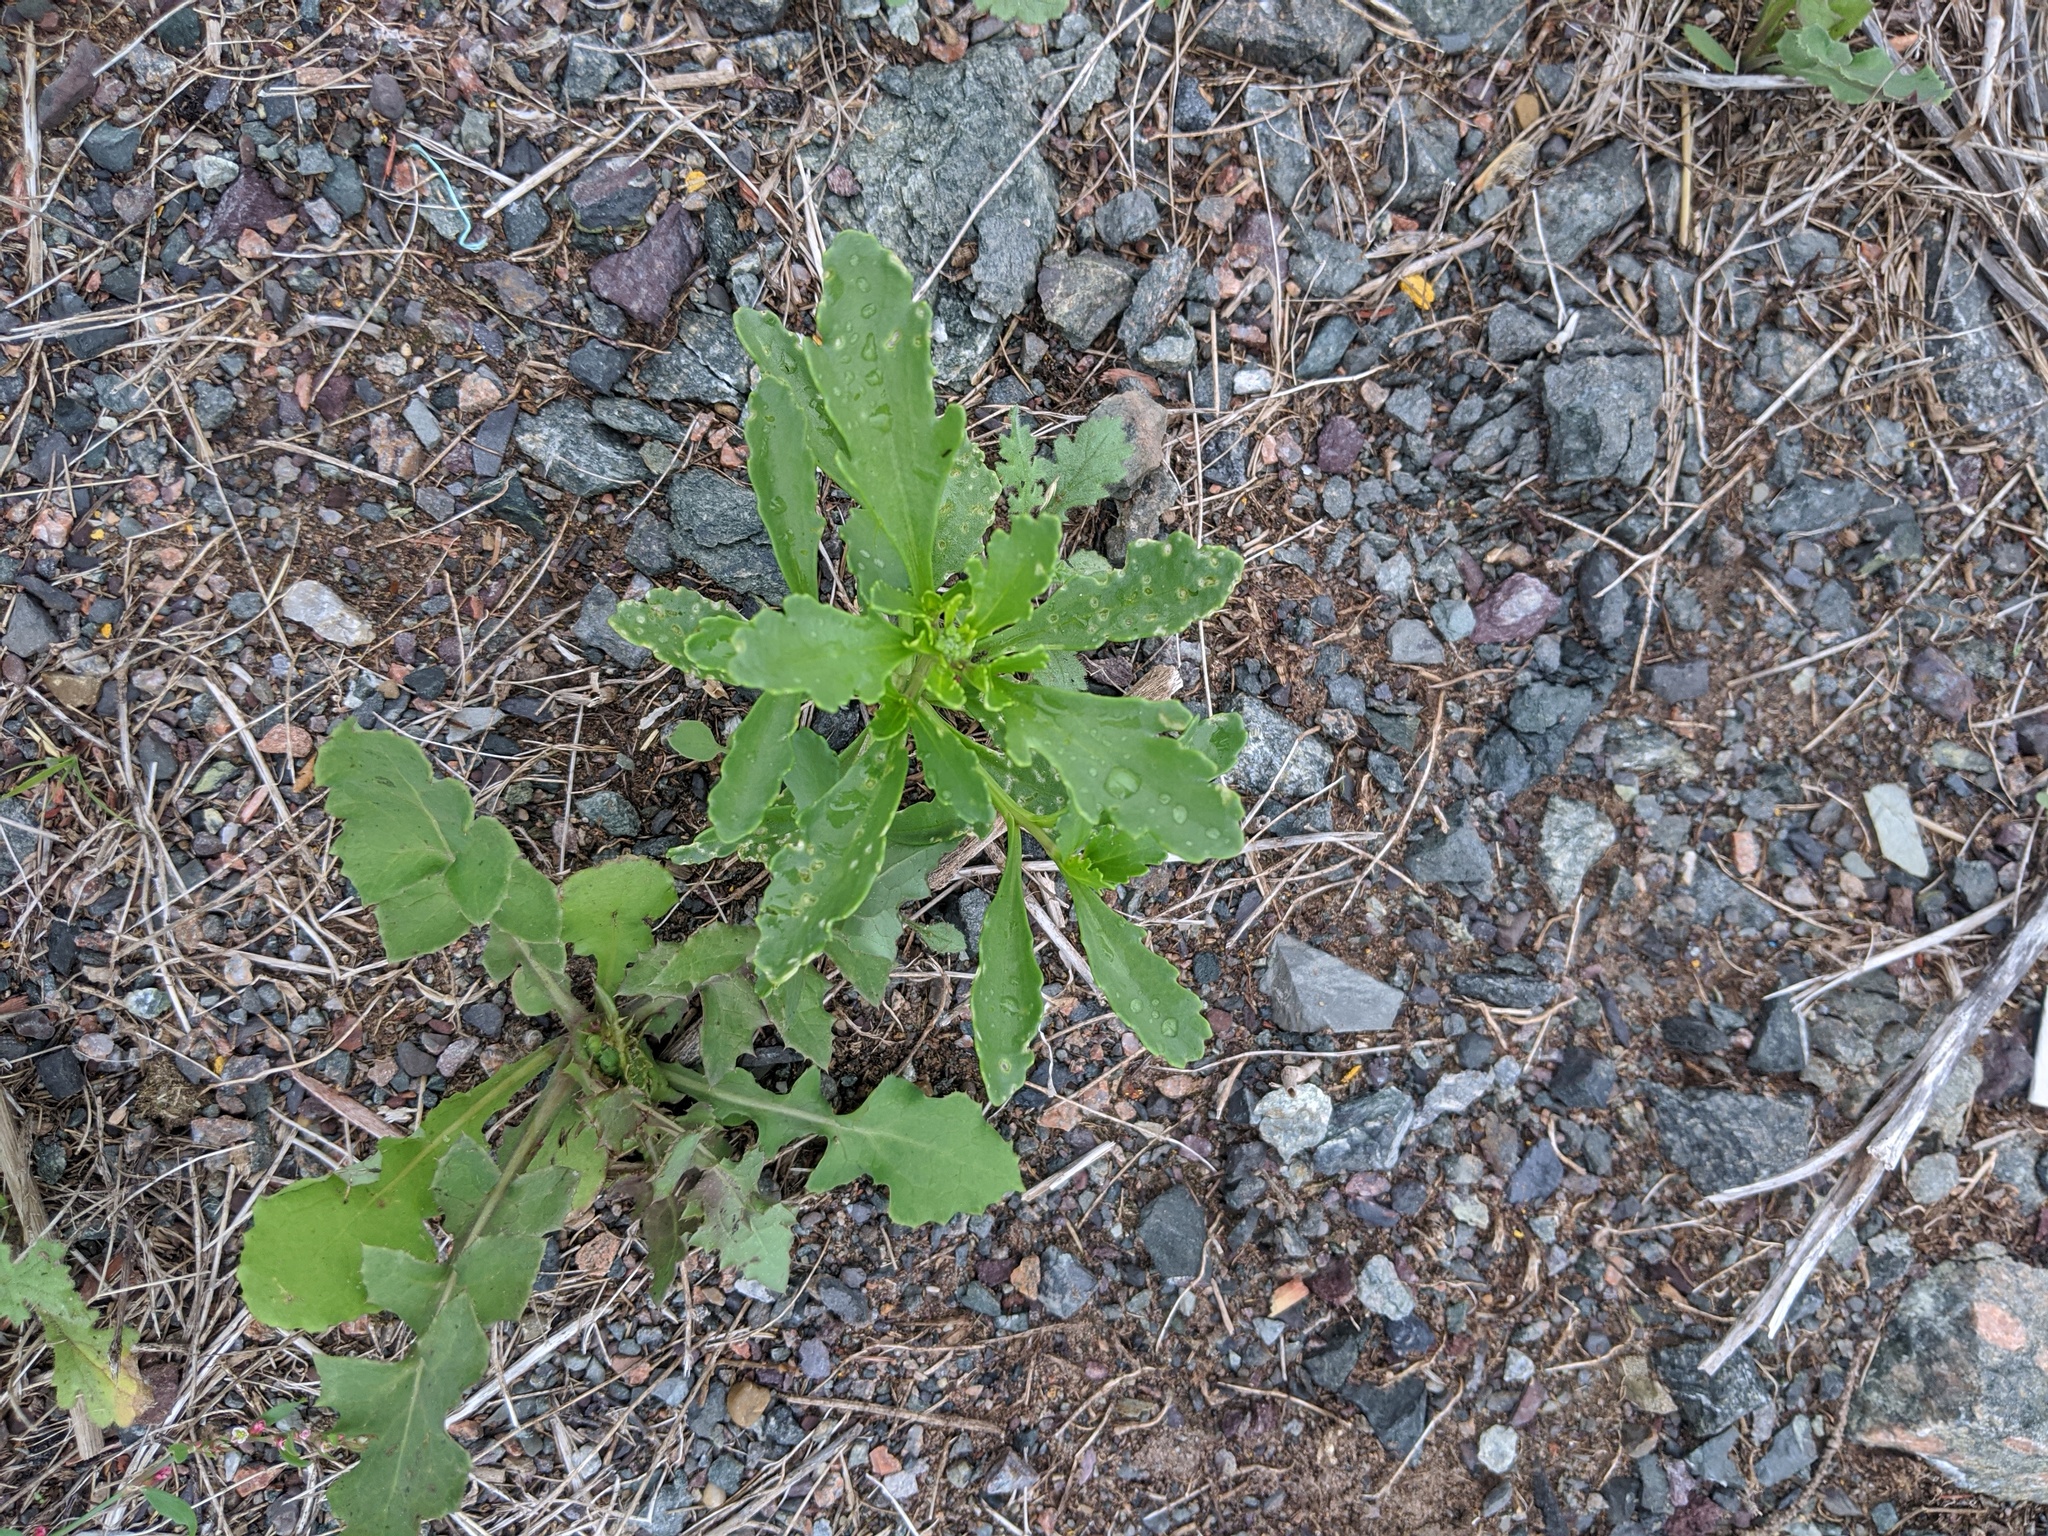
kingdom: Plantae
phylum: Tracheophyta
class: Magnoliopsida
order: Brassicales
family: Brassicaceae
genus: Cakile
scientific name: Cakile edentula
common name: American sea rocket
